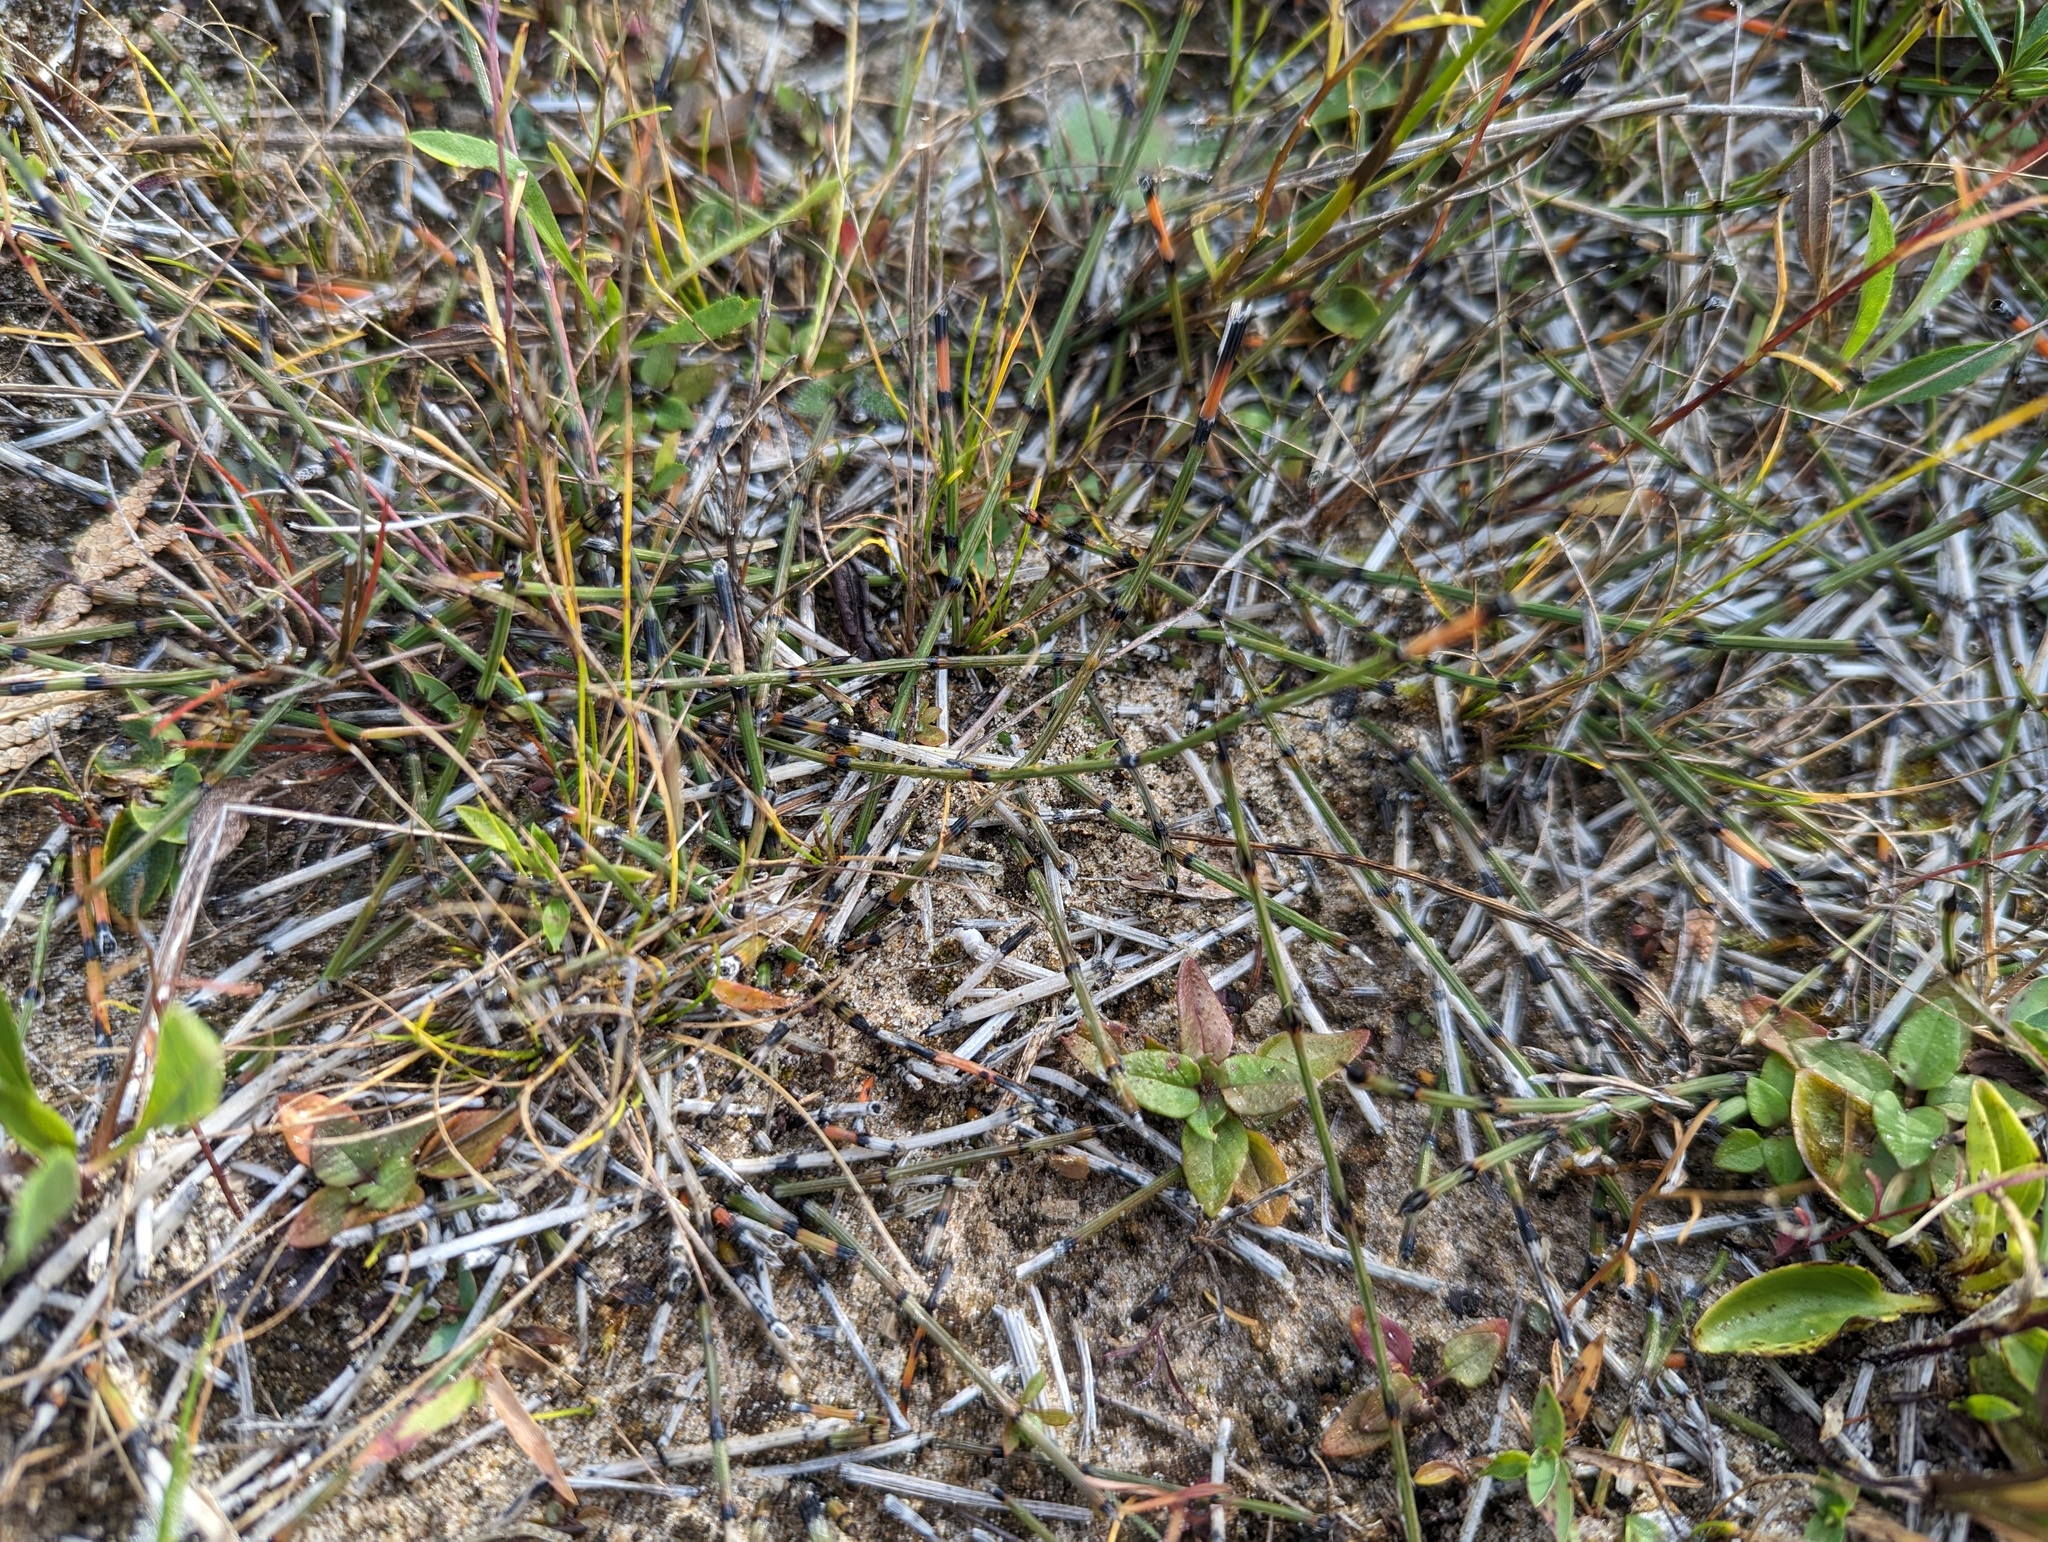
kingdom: Plantae
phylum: Tracheophyta
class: Polypodiopsida
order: Equisetales
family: Equisetaceae
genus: Equisetum
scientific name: Equisetum variegatum
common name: Variegated horsetail
